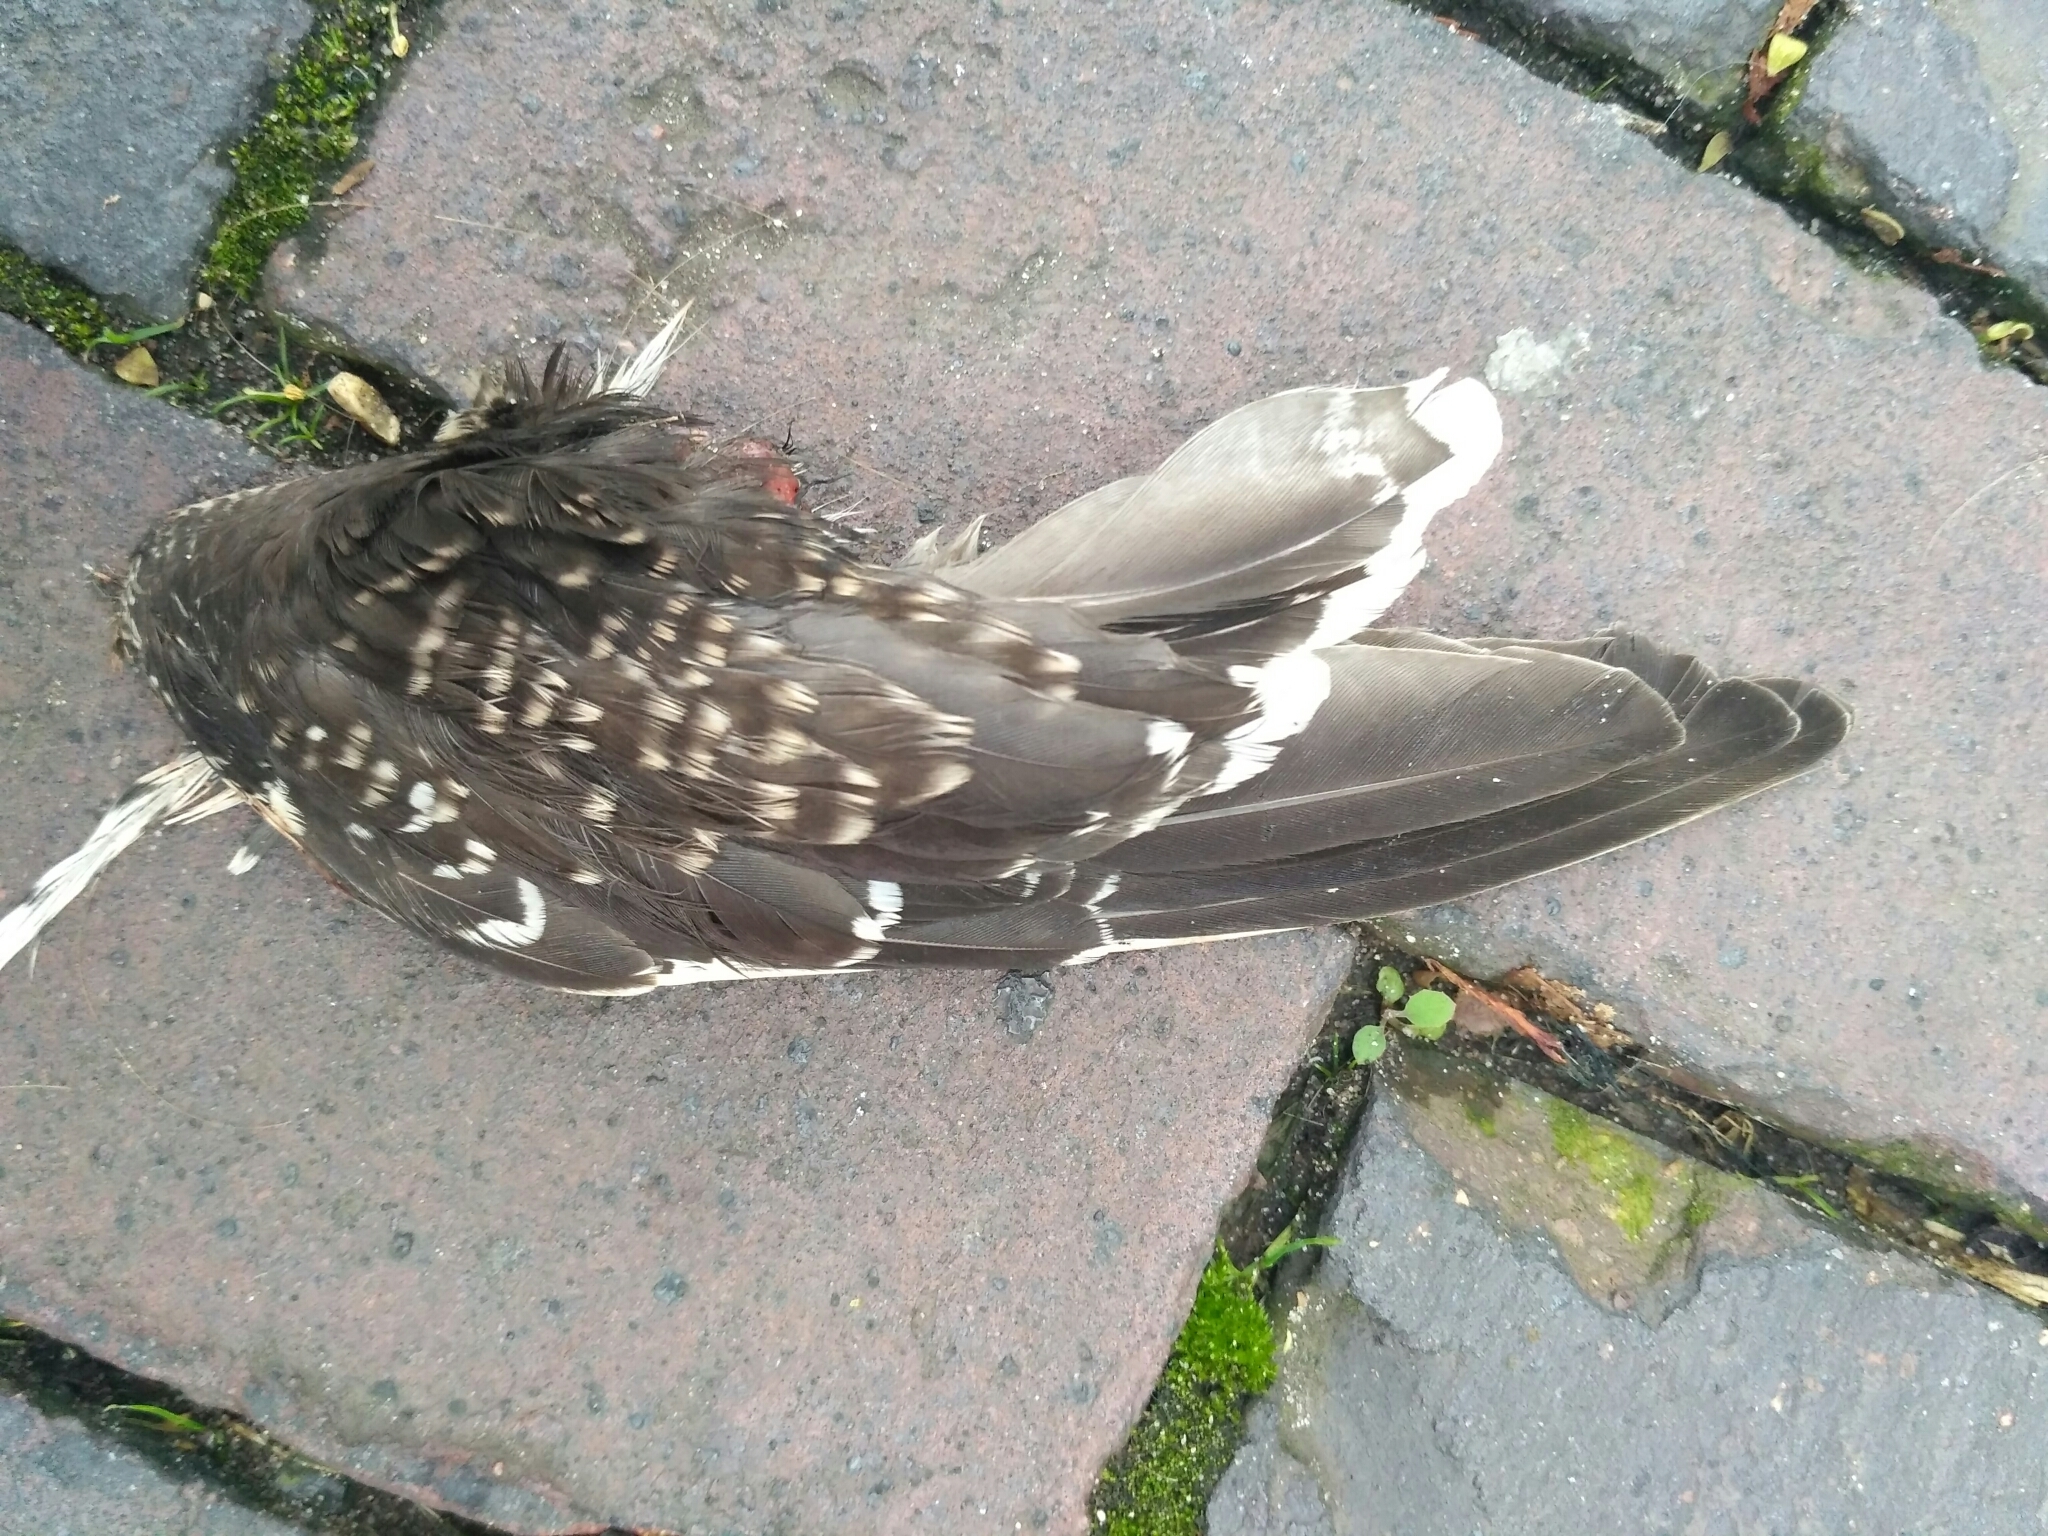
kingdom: Animalia
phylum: Chordata
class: Aves
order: Charadriiformes
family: Scolopacidae
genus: Gallinago
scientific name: Gallinago gallinago
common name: Common snipe
